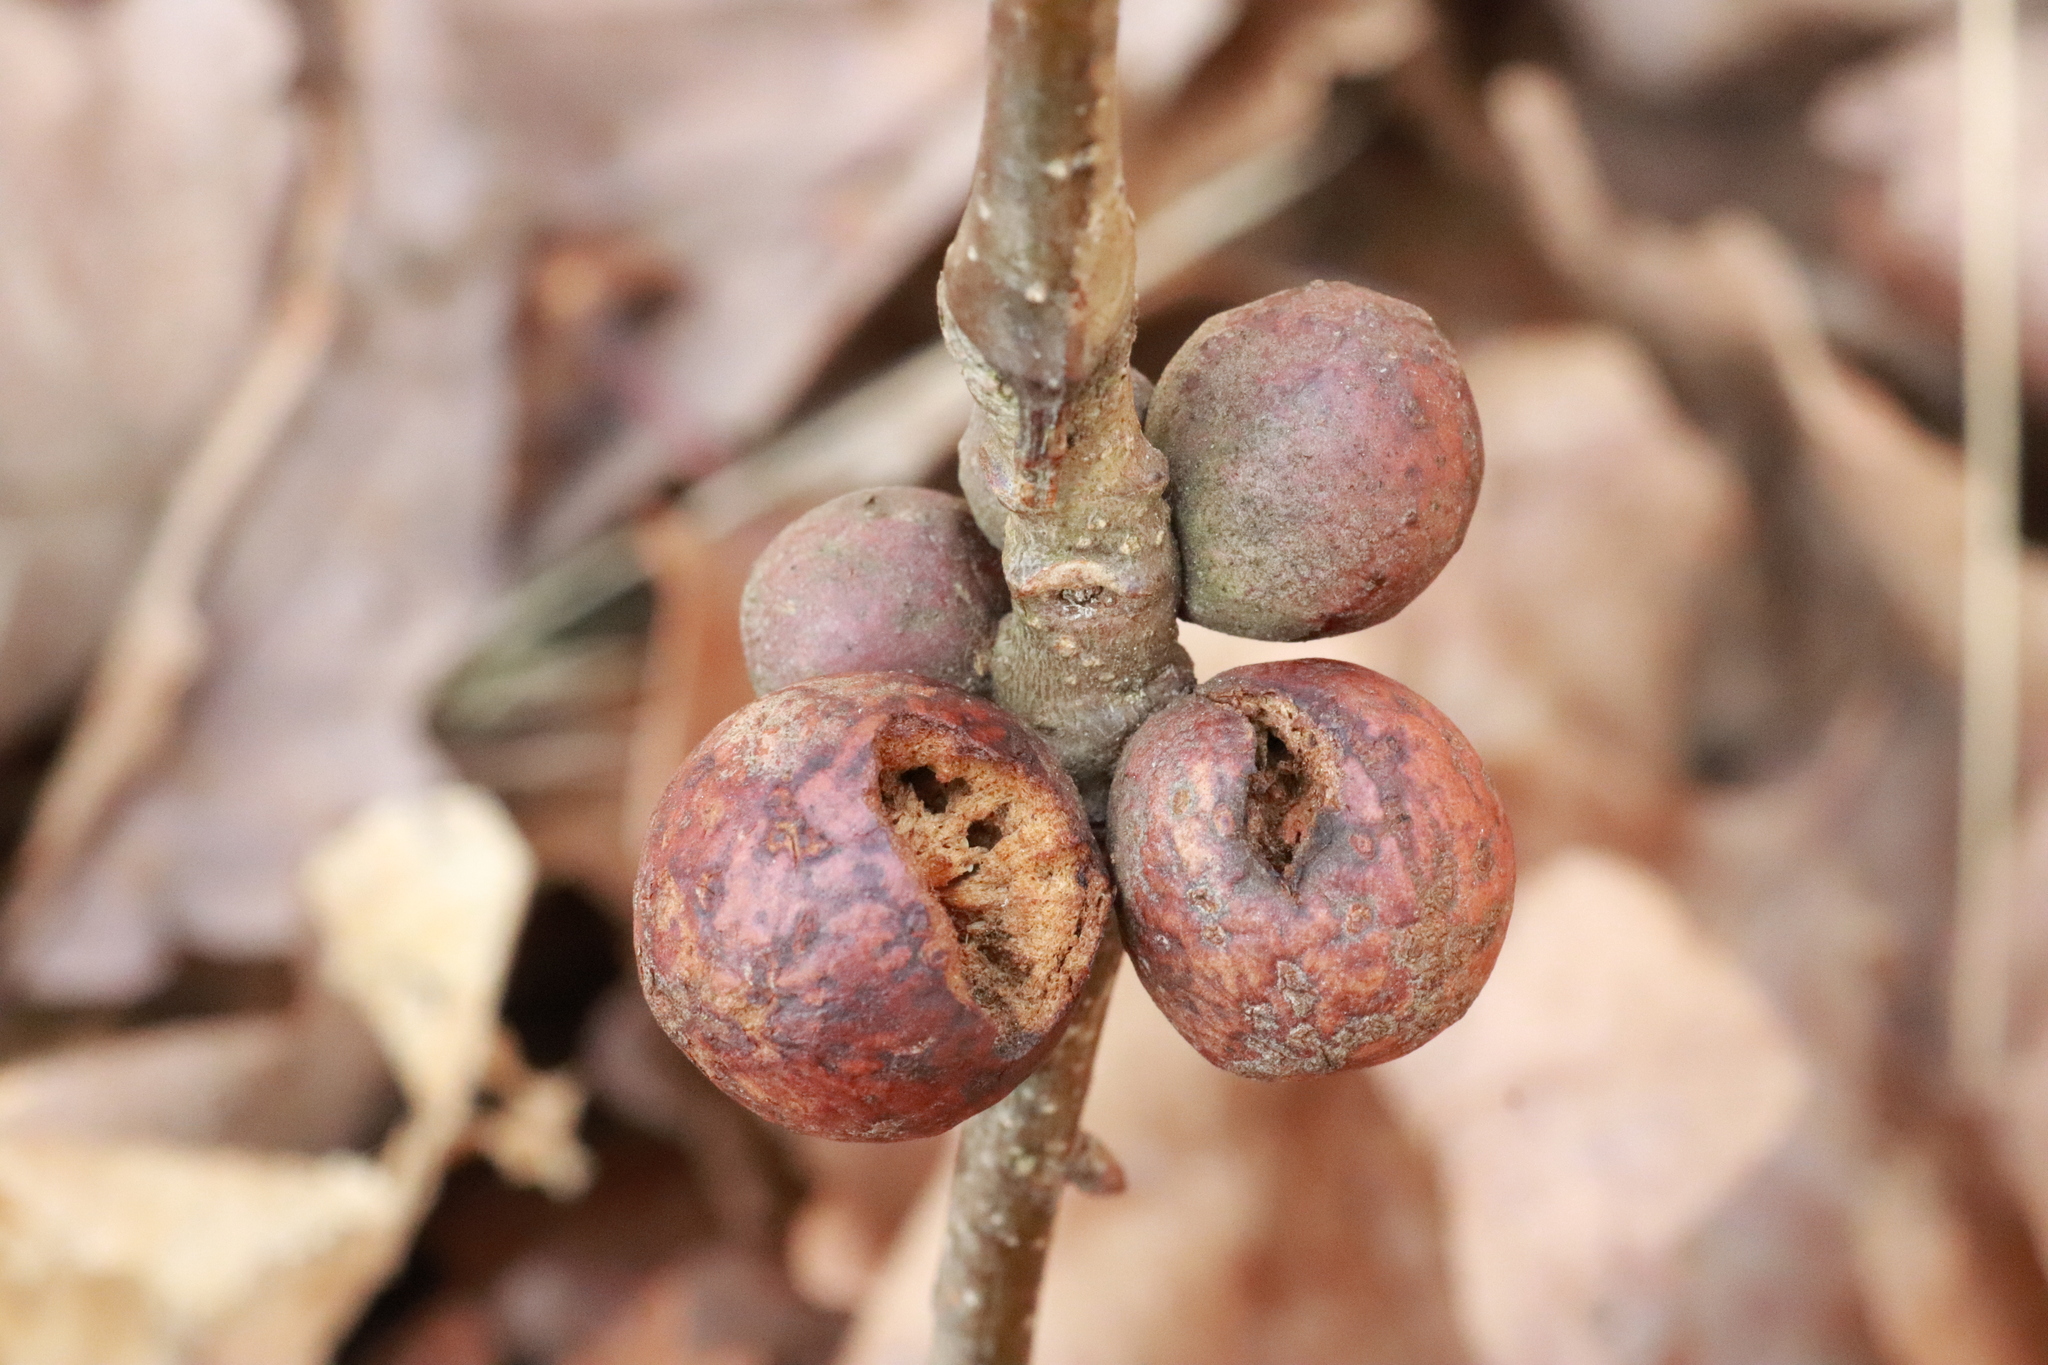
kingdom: Animalia
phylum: Arthropoda
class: Insecta
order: Hymenoptera
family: Cynipidae
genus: Andricus
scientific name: Andricus kollari
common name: Marble gall
